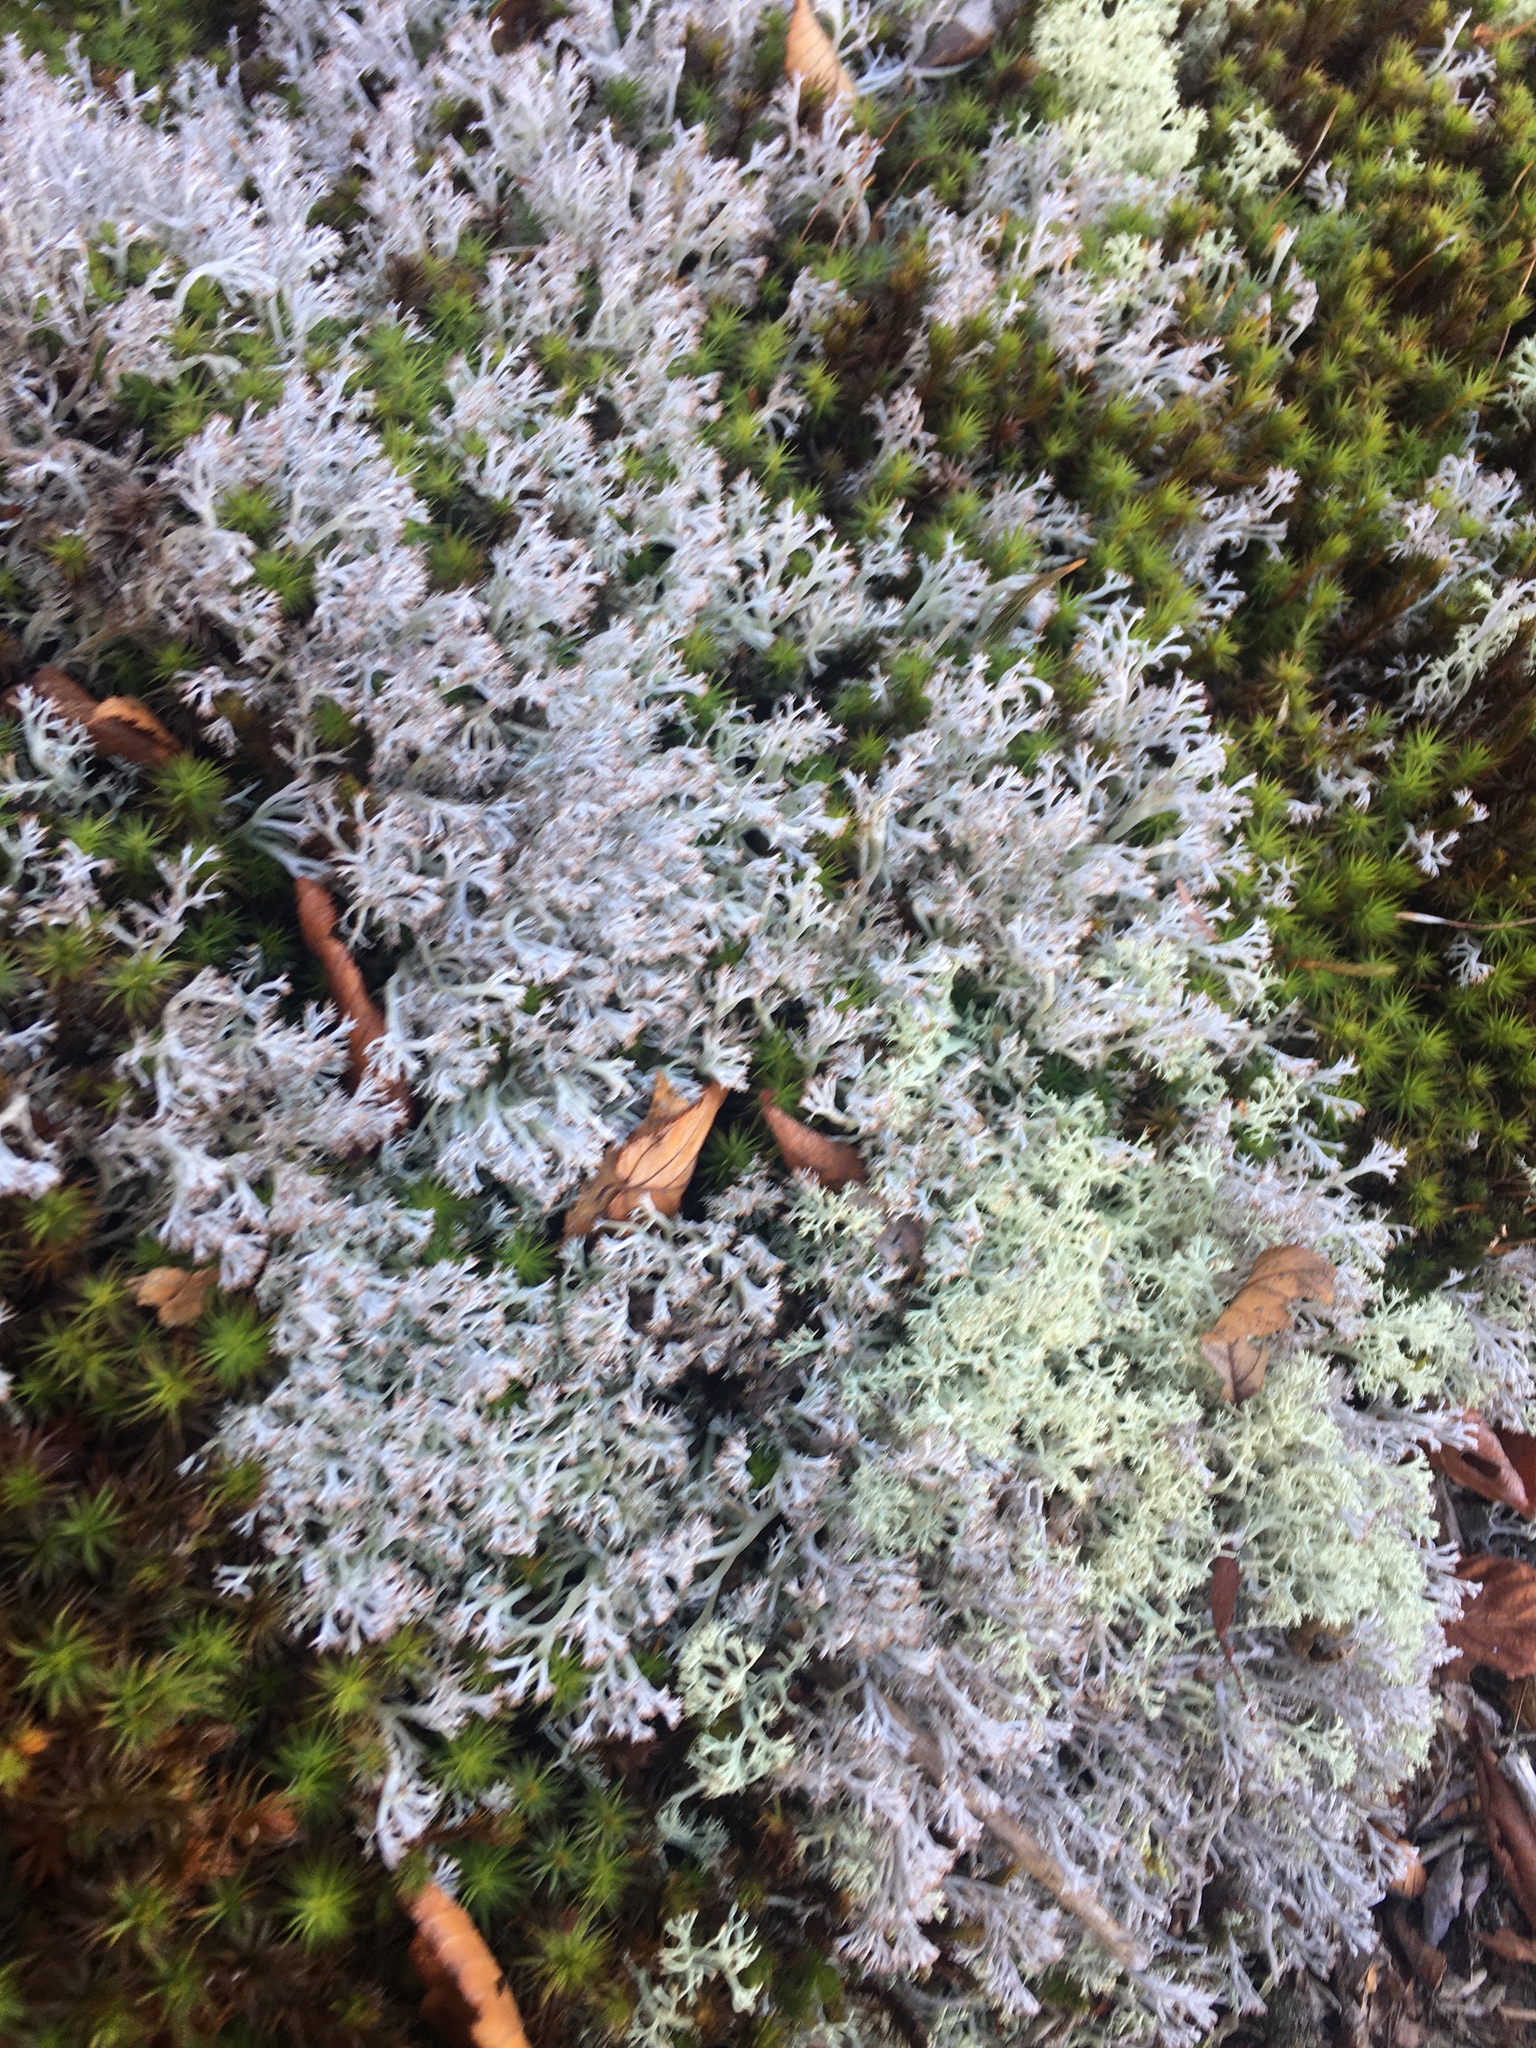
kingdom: Fungi
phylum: Ascomycota
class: Lecanoromycetes
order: Lecanorales
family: Cladoniaceae
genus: Cladonia
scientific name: Cladonia rangiferina
